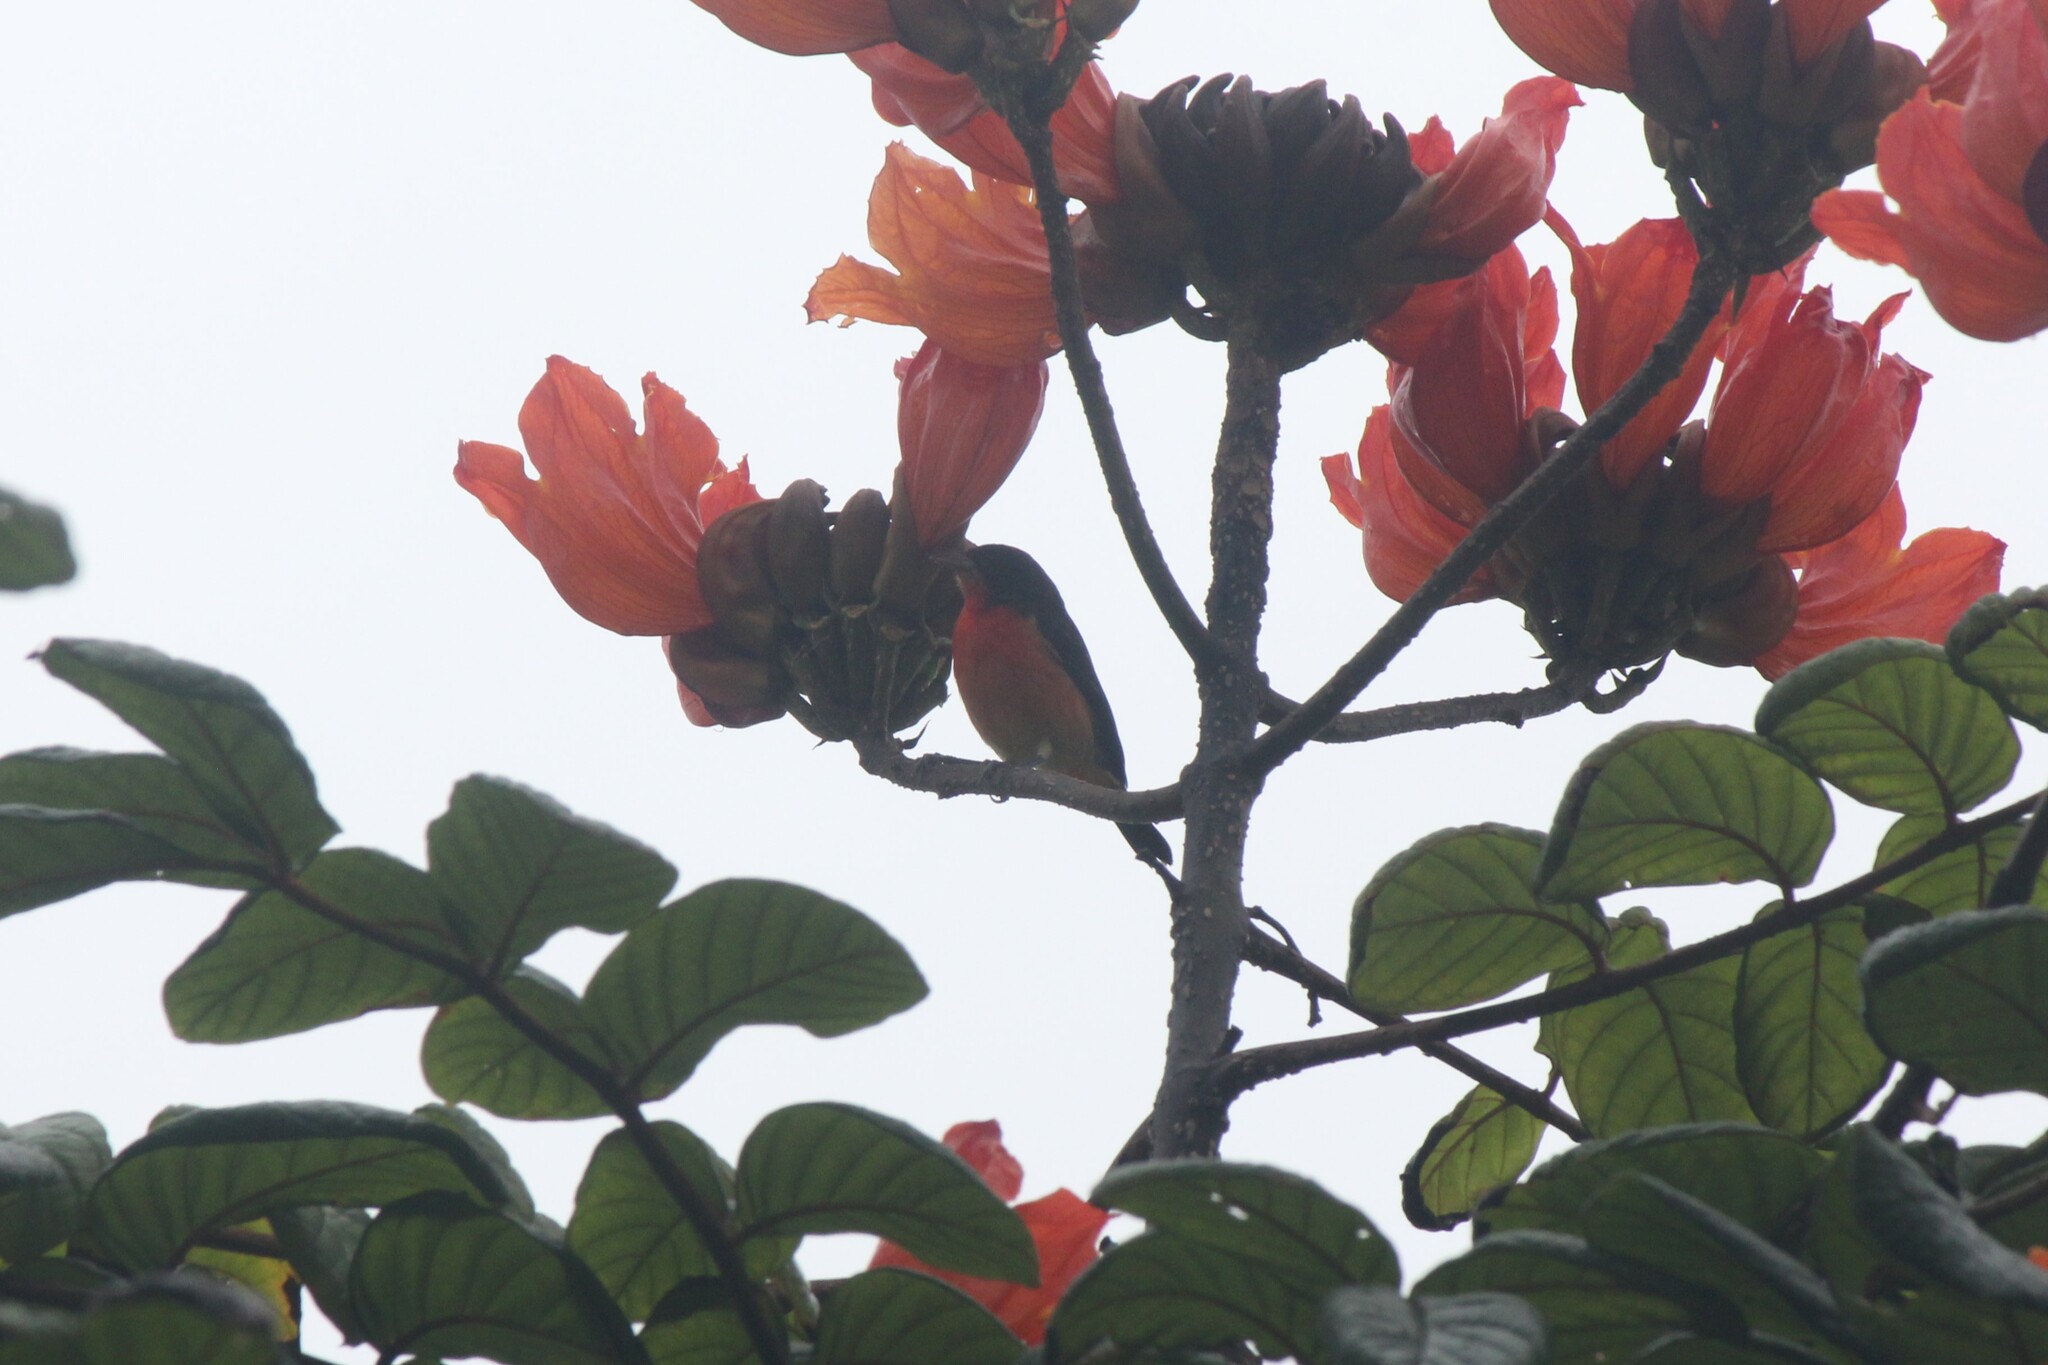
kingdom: Animalia
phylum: Chordata
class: Aves
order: Passeriformes
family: Thraupidae
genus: Rhodospingus
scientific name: Rhodospingus cruentus
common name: Crimson-breasted finch
